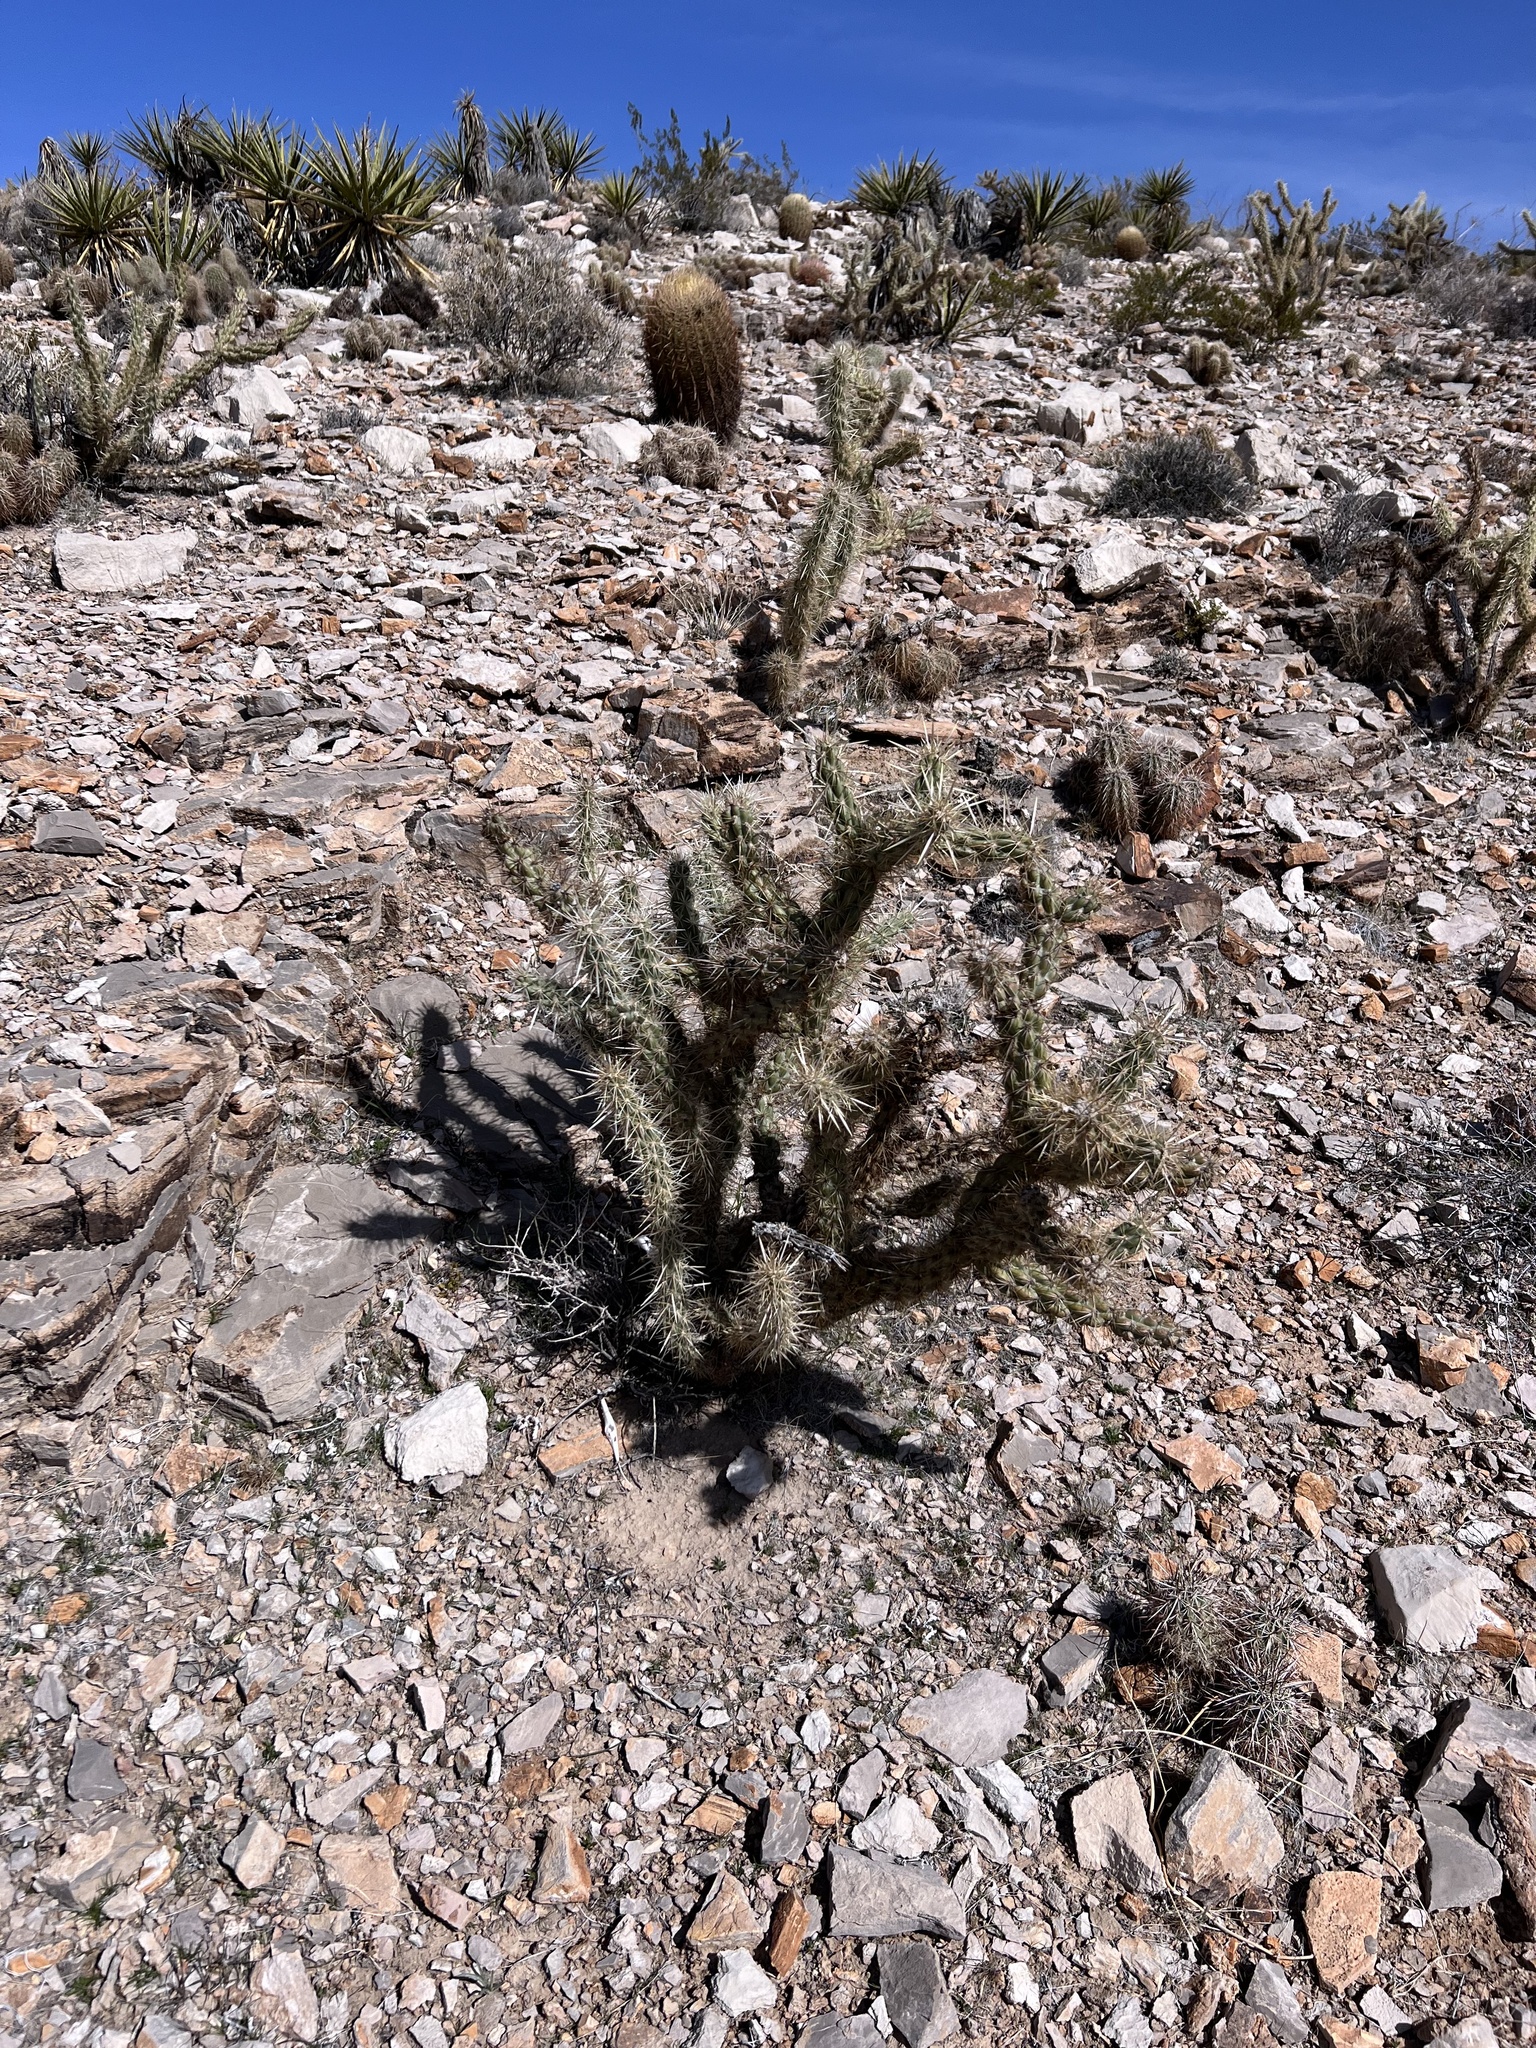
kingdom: Plantae
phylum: Tracheophyta
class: Magnoliopsida
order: Caryophyllales
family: Cactaceae
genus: Cylindropuntia
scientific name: Cylindropuntia acanthocarpa
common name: Buckhorn cholla
